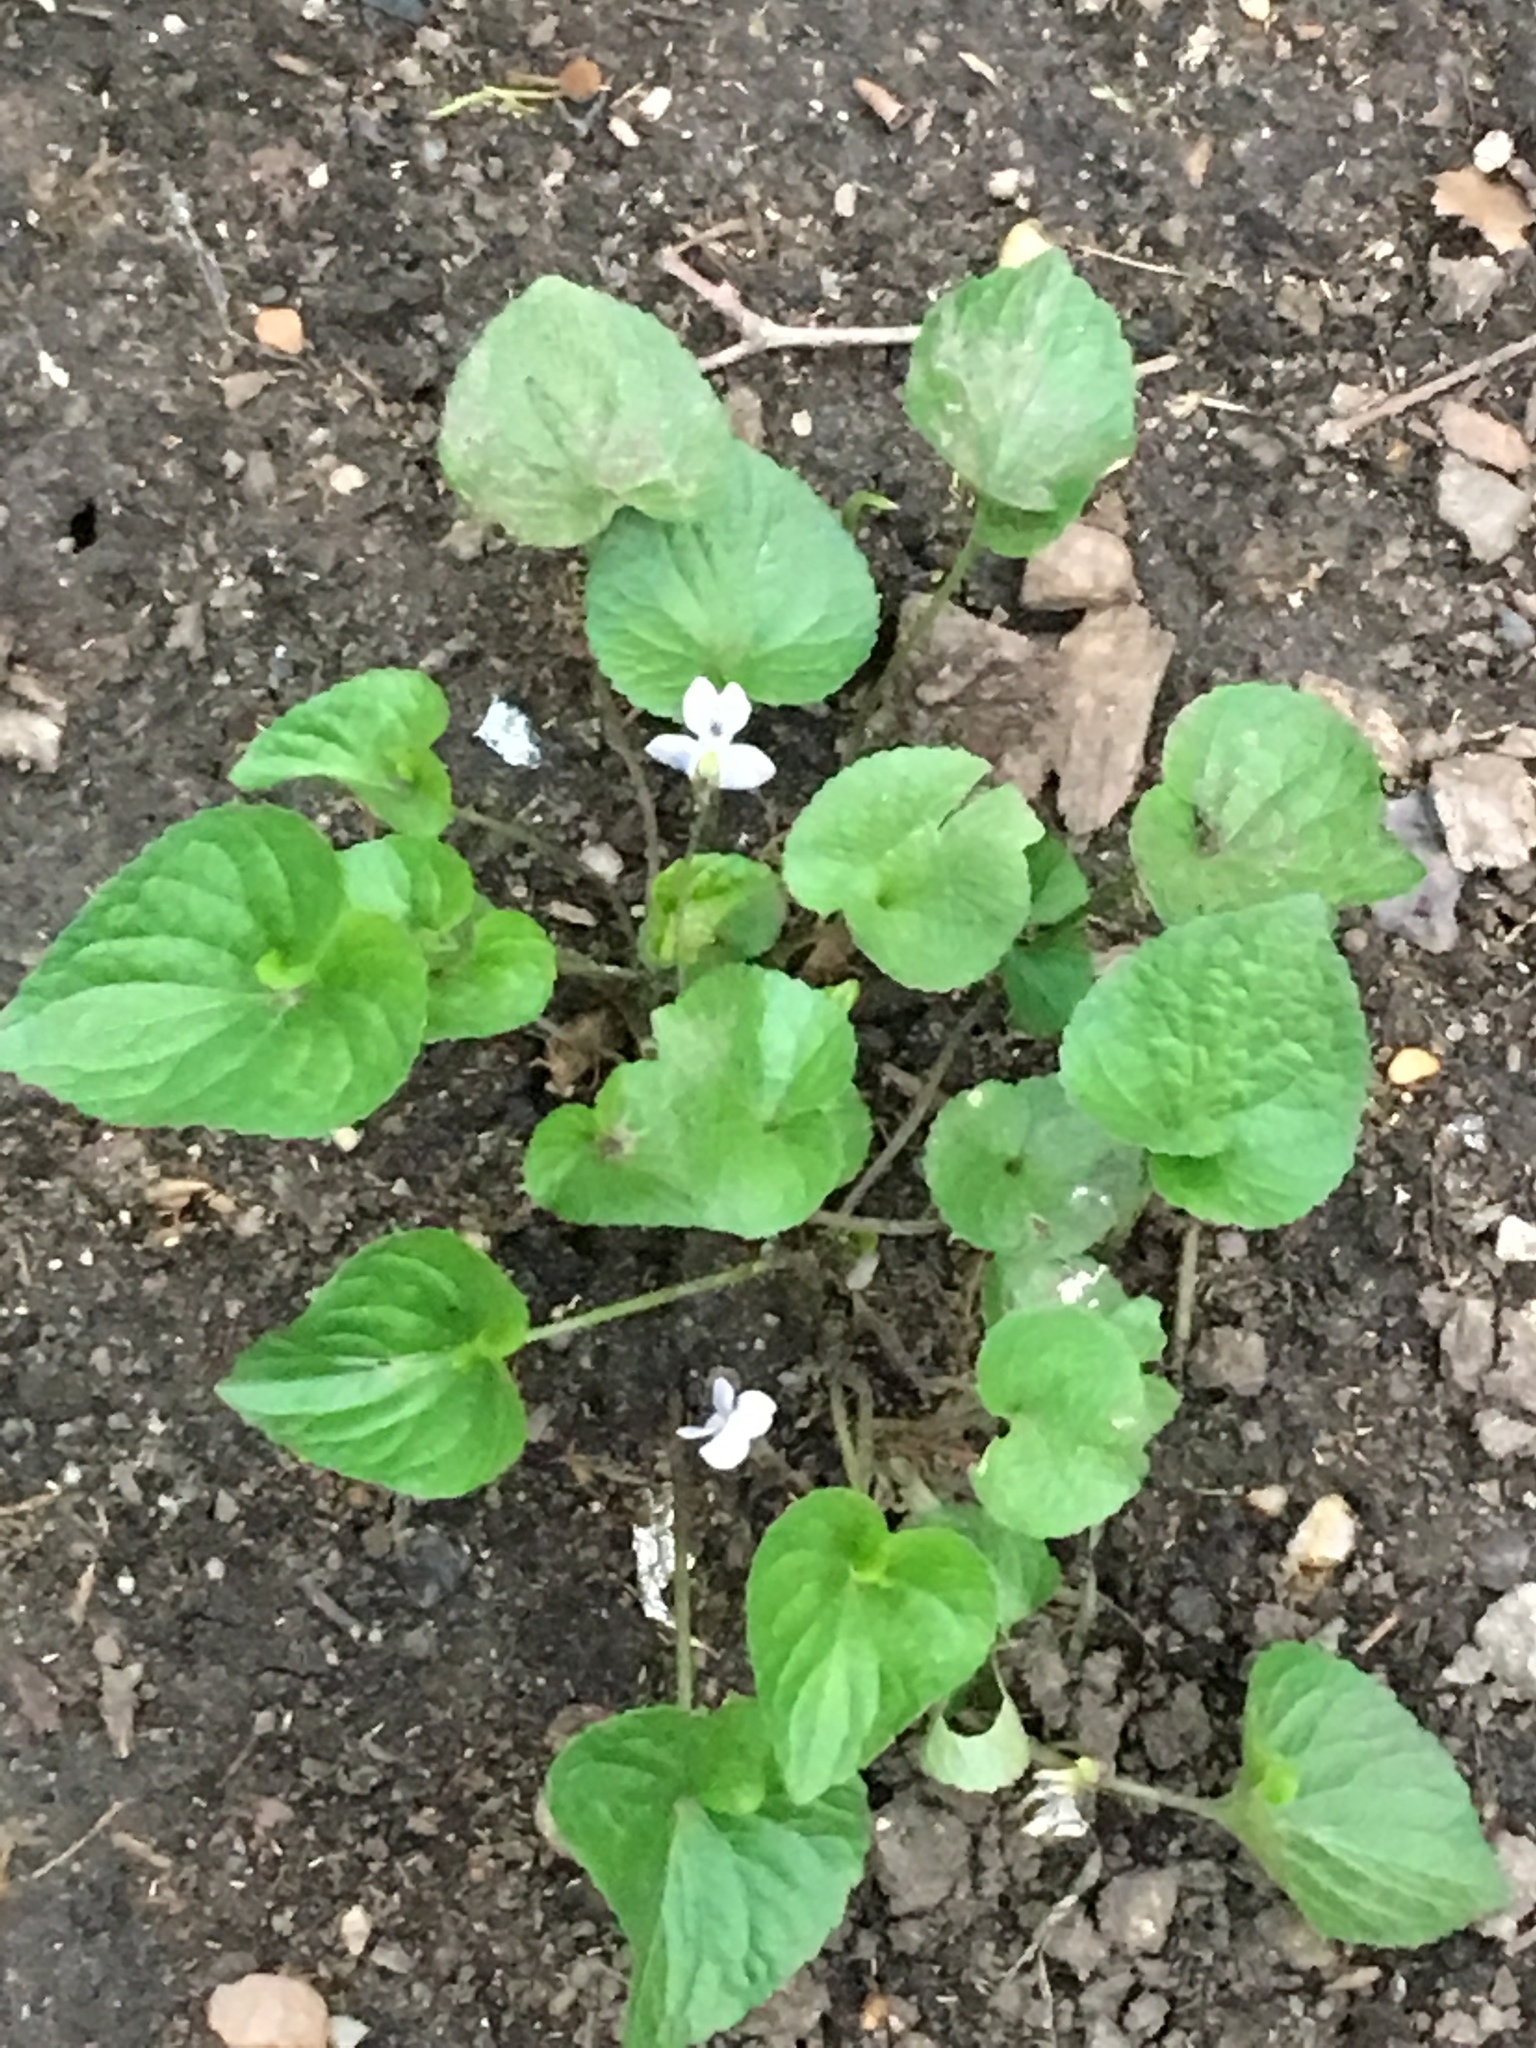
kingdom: Plantae
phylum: Tracheophyta
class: Magnoliopsida
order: Malpighiales
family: Violaceae
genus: Viola
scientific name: Viola sororia
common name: Dooryard violet
